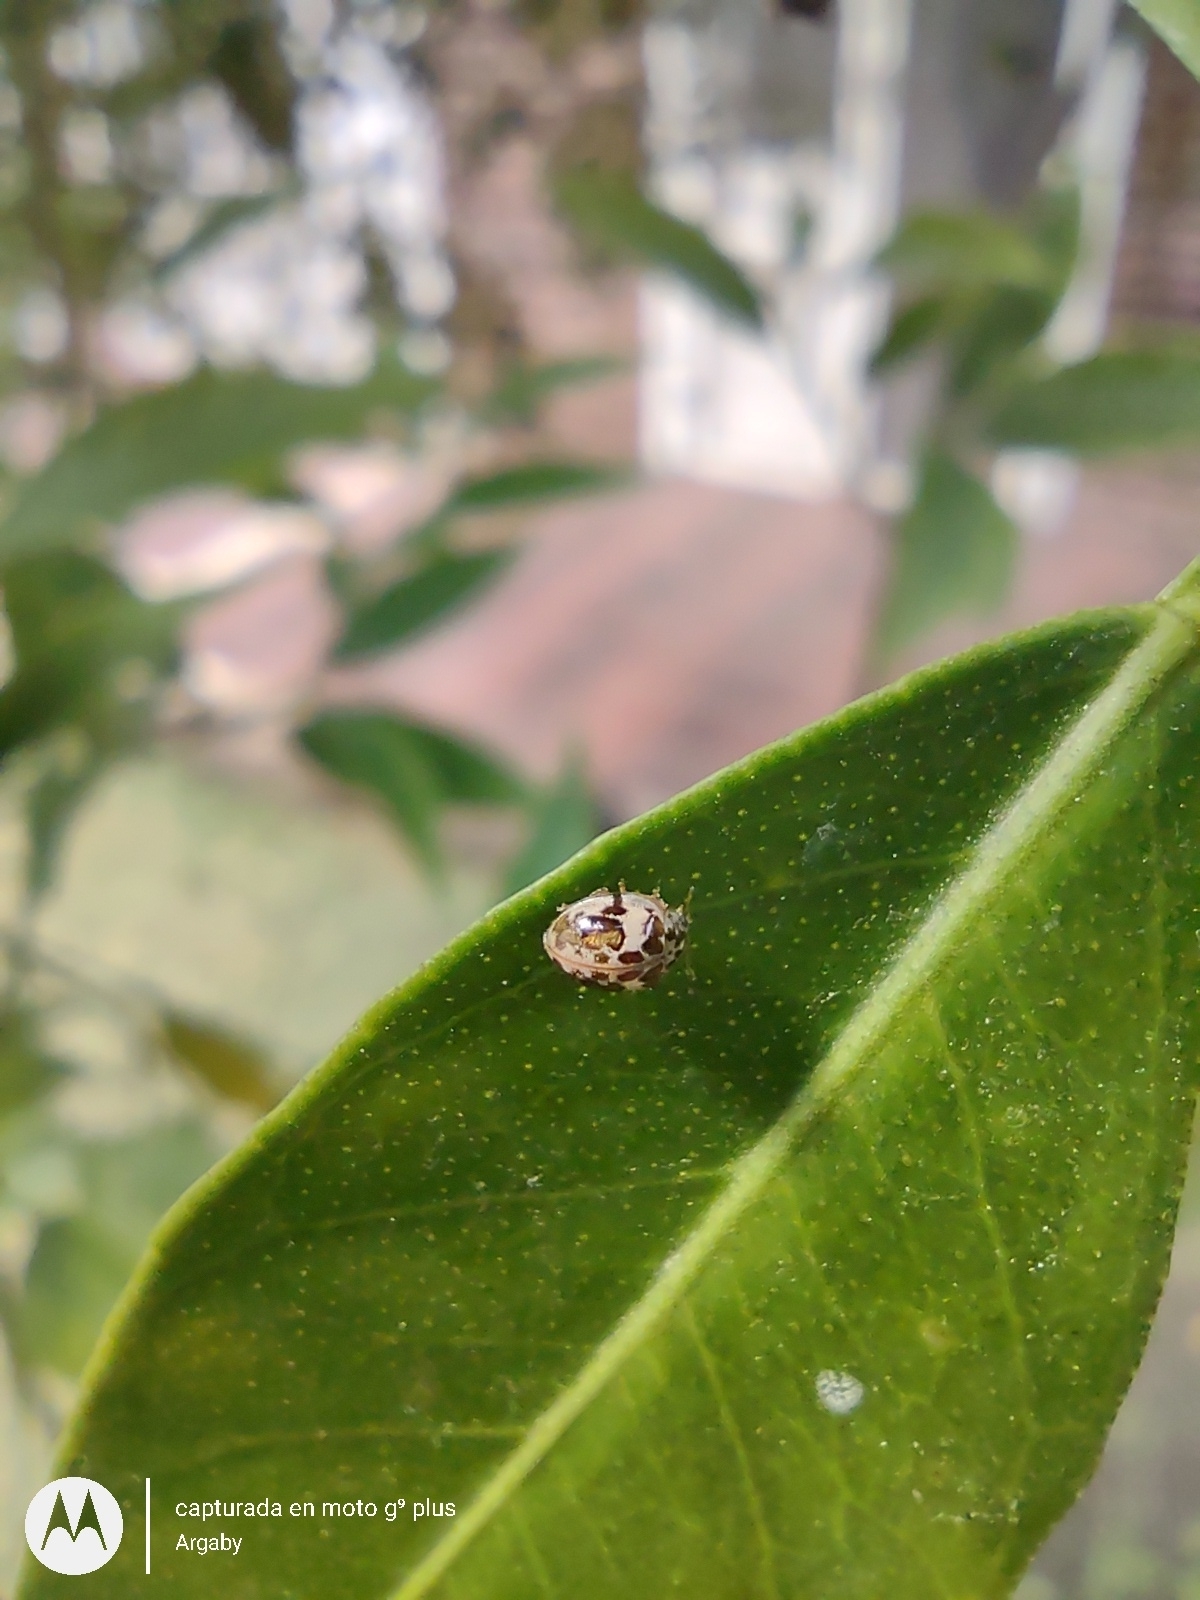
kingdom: Animalia
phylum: Arthropoda
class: Insecta
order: Coleoptera
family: Coccinellidae
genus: Psyllobora
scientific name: Psyllobora
